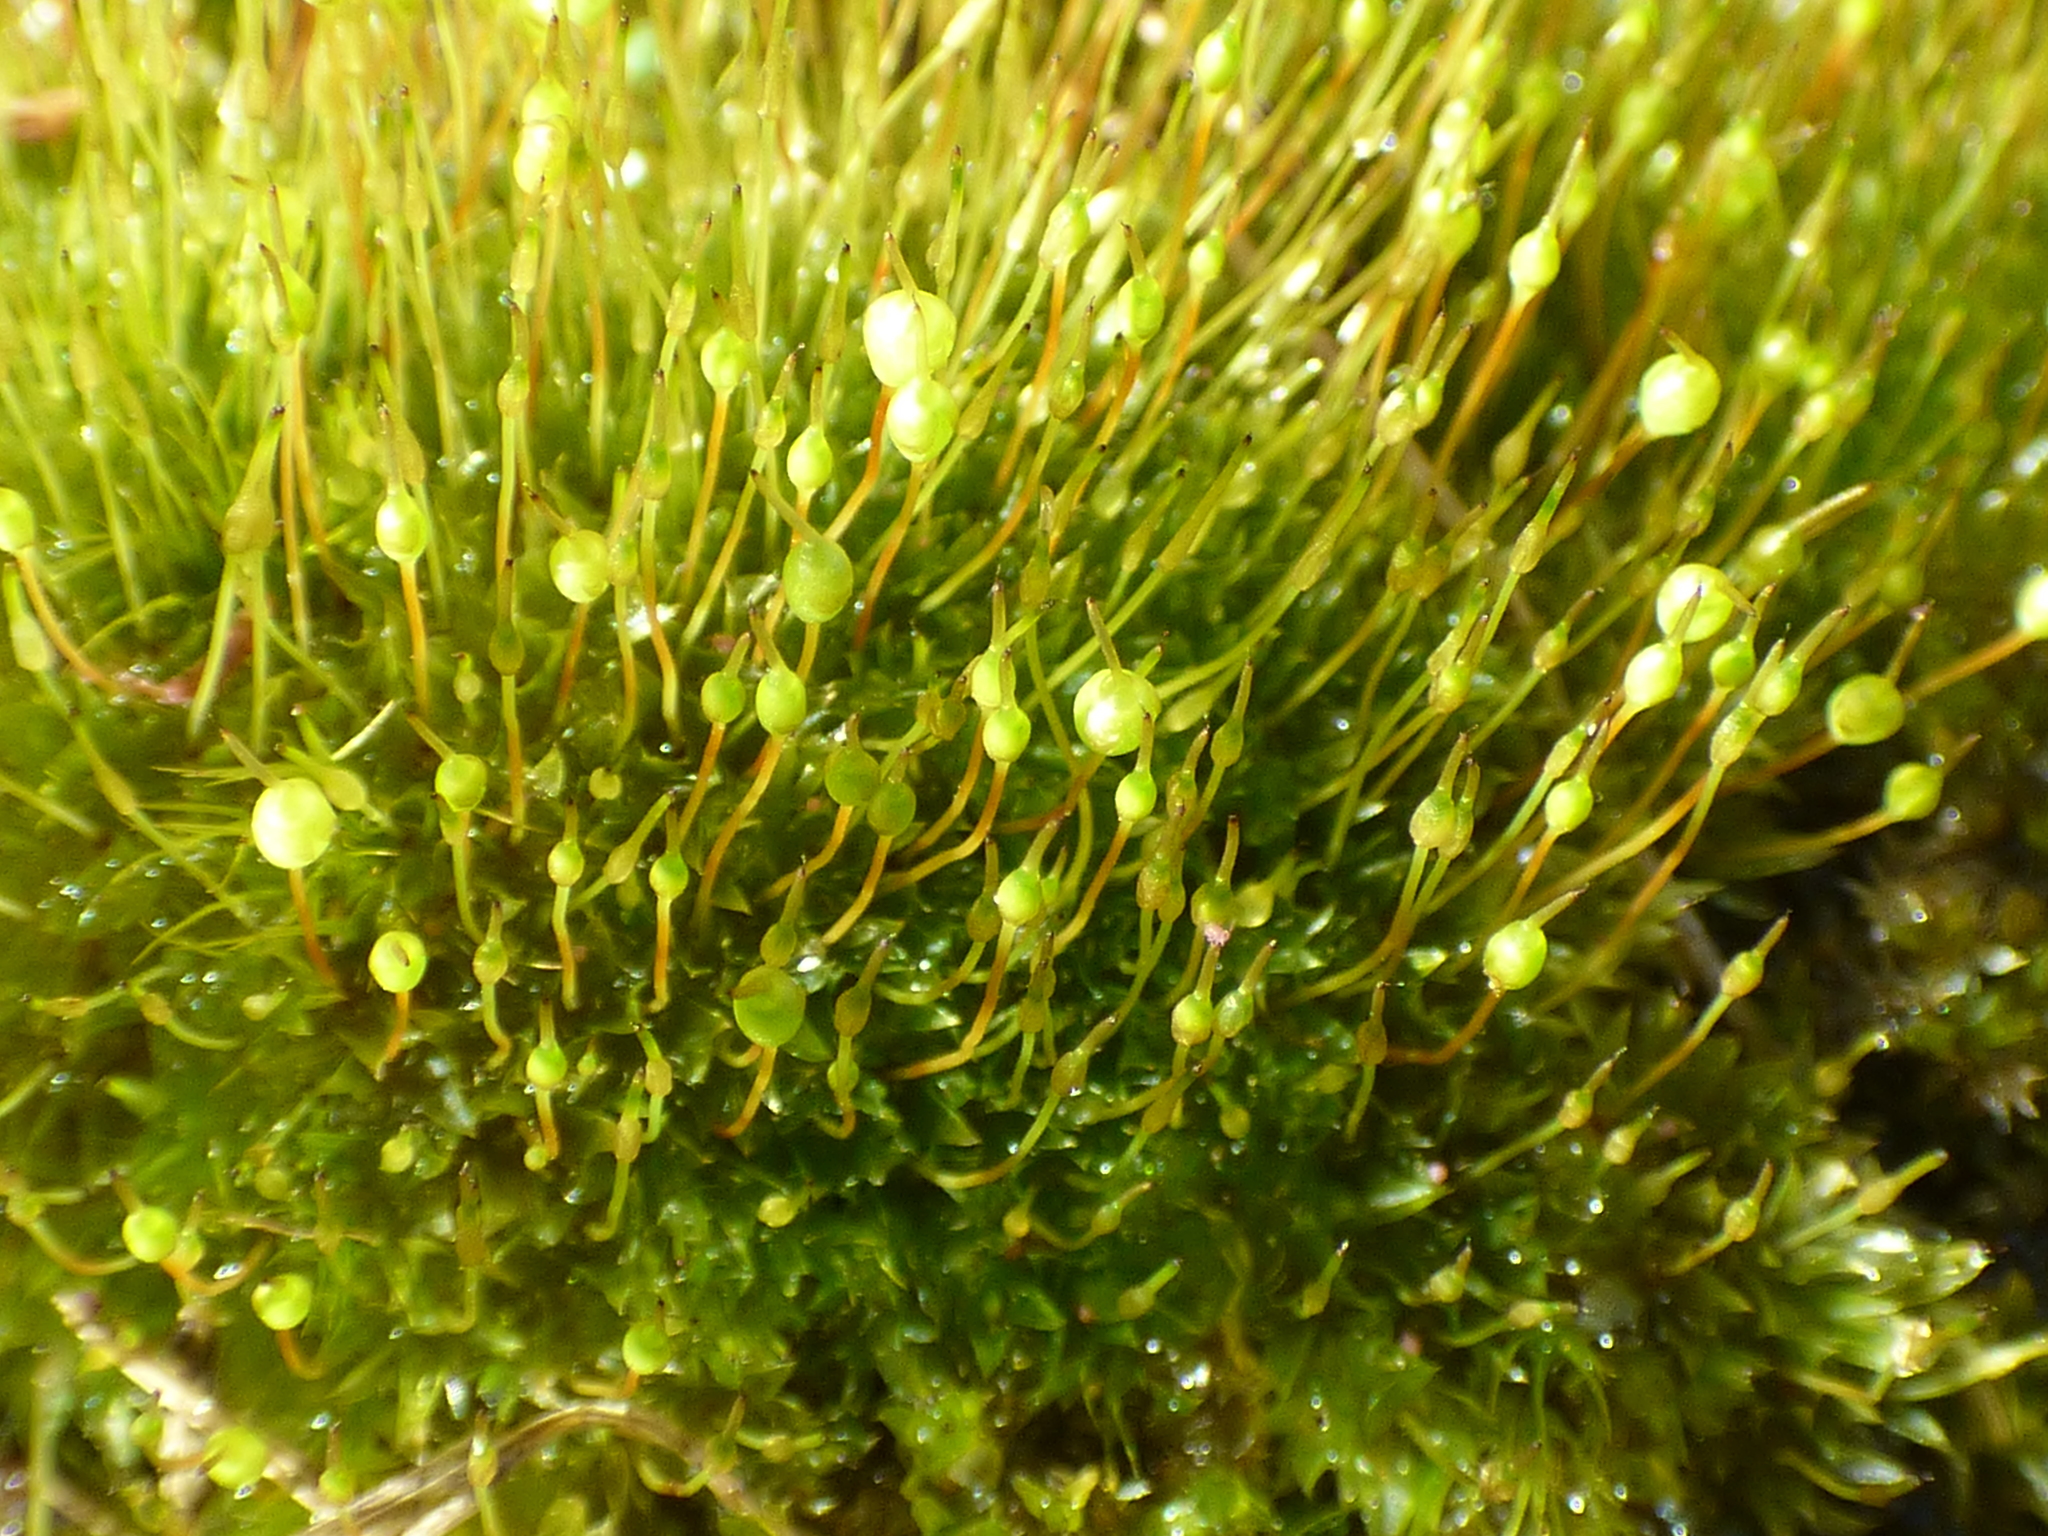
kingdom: Plantae
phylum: Bryophyta
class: Bryopsida
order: Funariales
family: Funariaceae
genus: Physcomitrium
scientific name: Physcomitrium pyriforme
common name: Common bladder-moss
